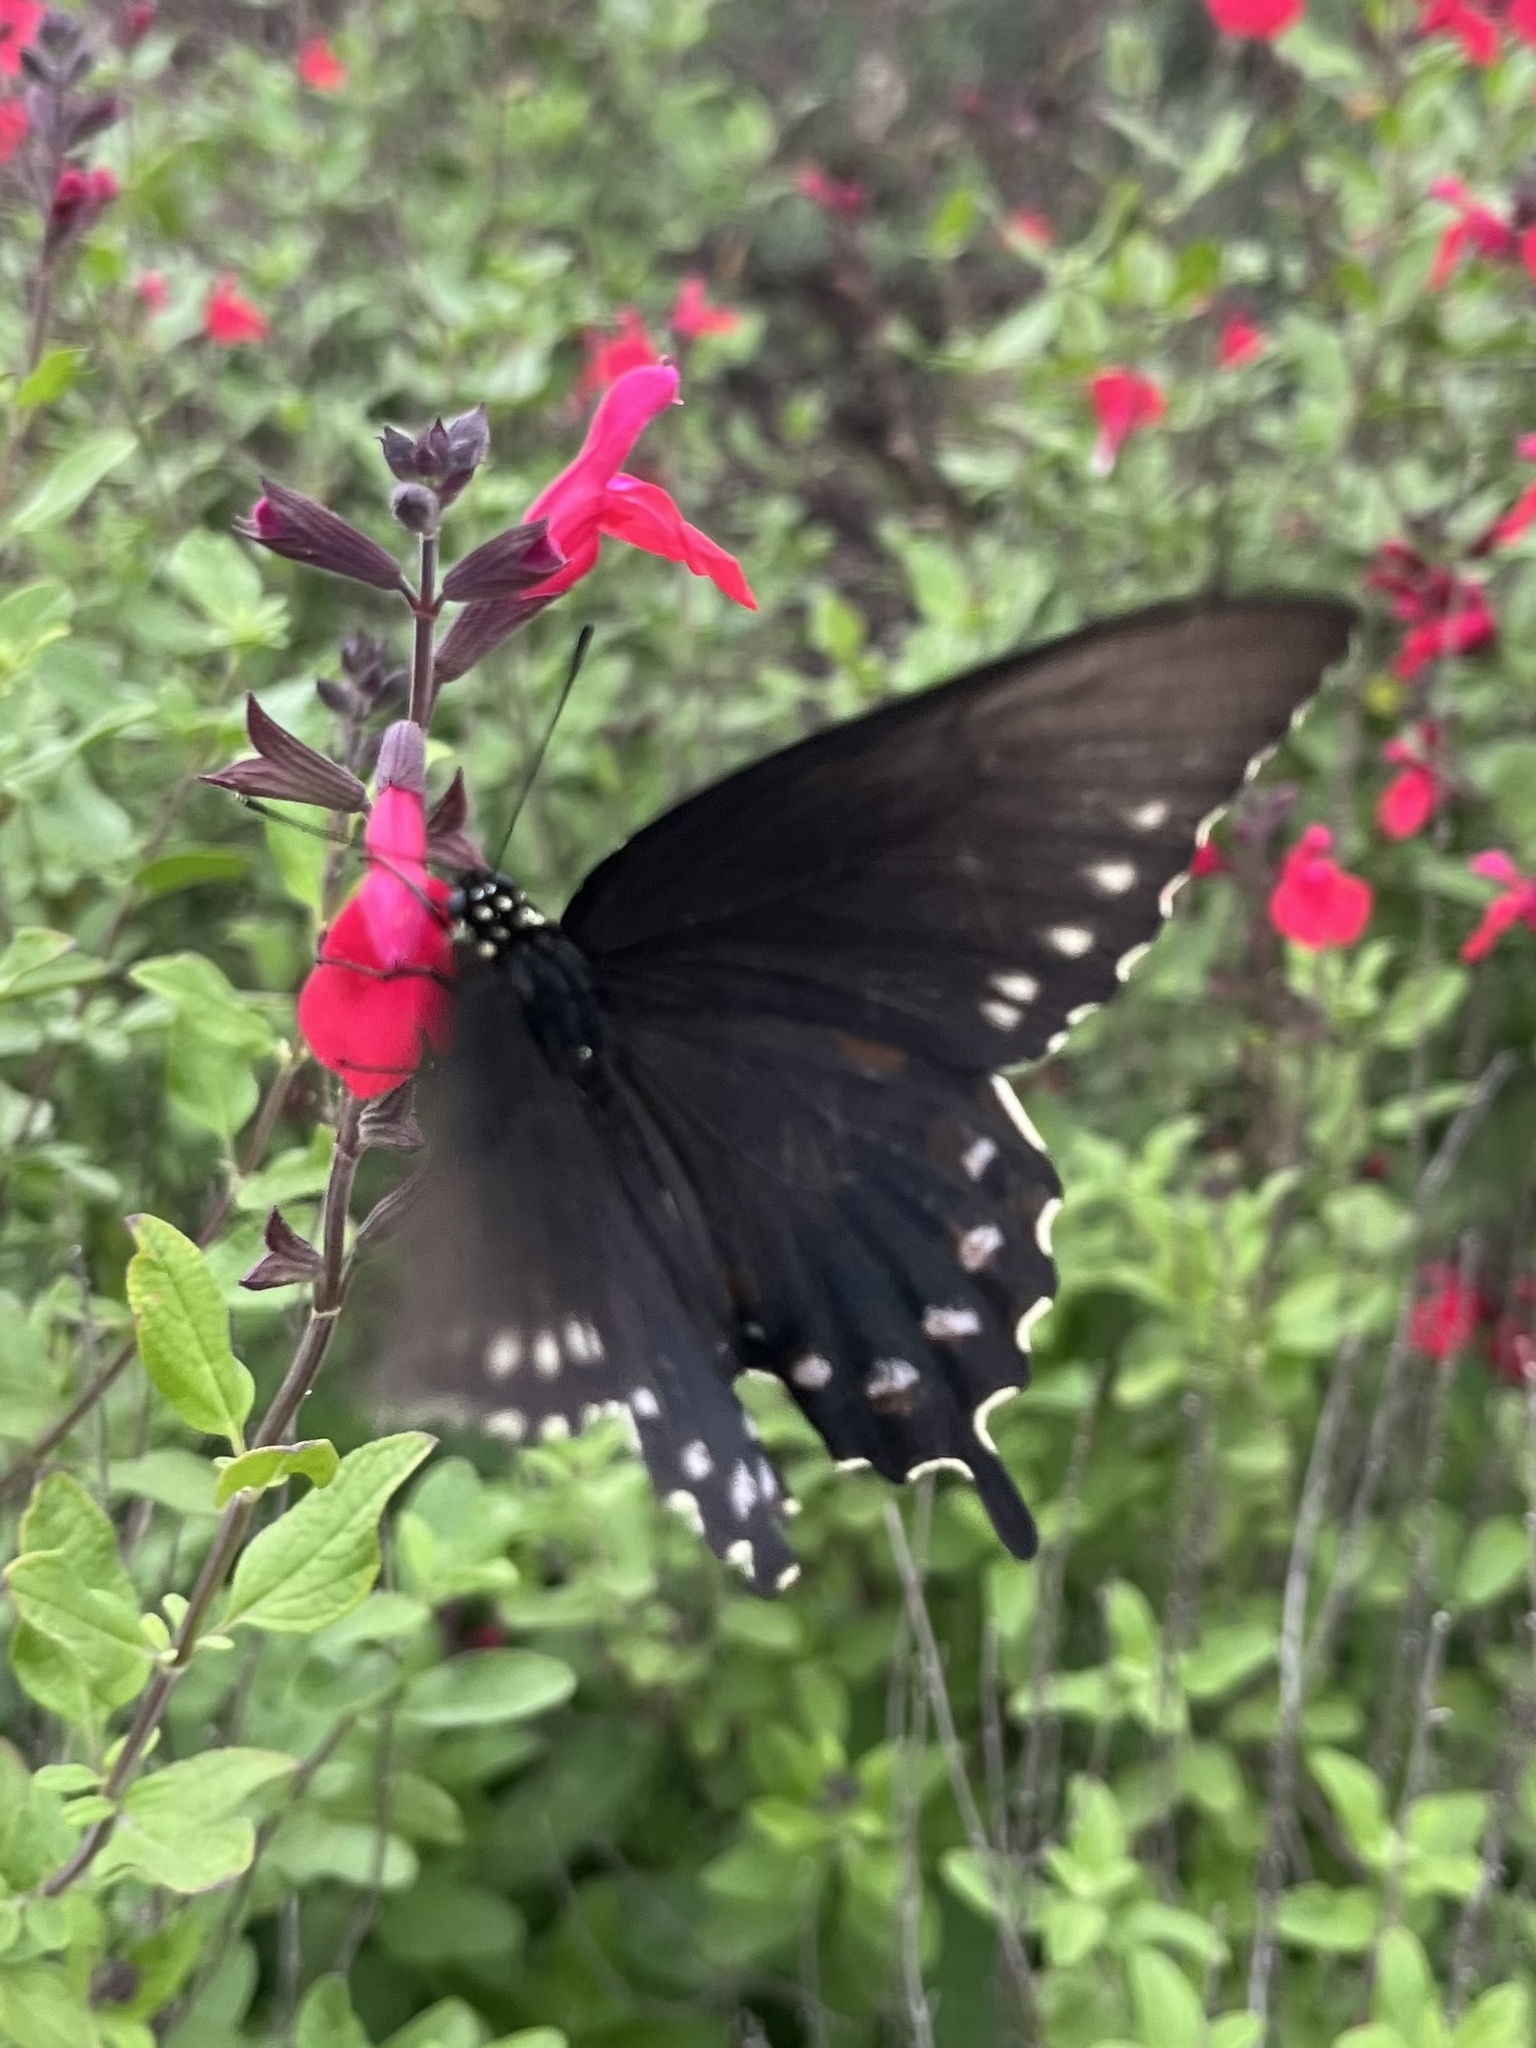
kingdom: Animalia
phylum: Arthropoda
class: Insecta
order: Lepidoptera
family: Papilionidae
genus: Battus
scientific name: Battus philenor
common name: Pipevine swallowtail
